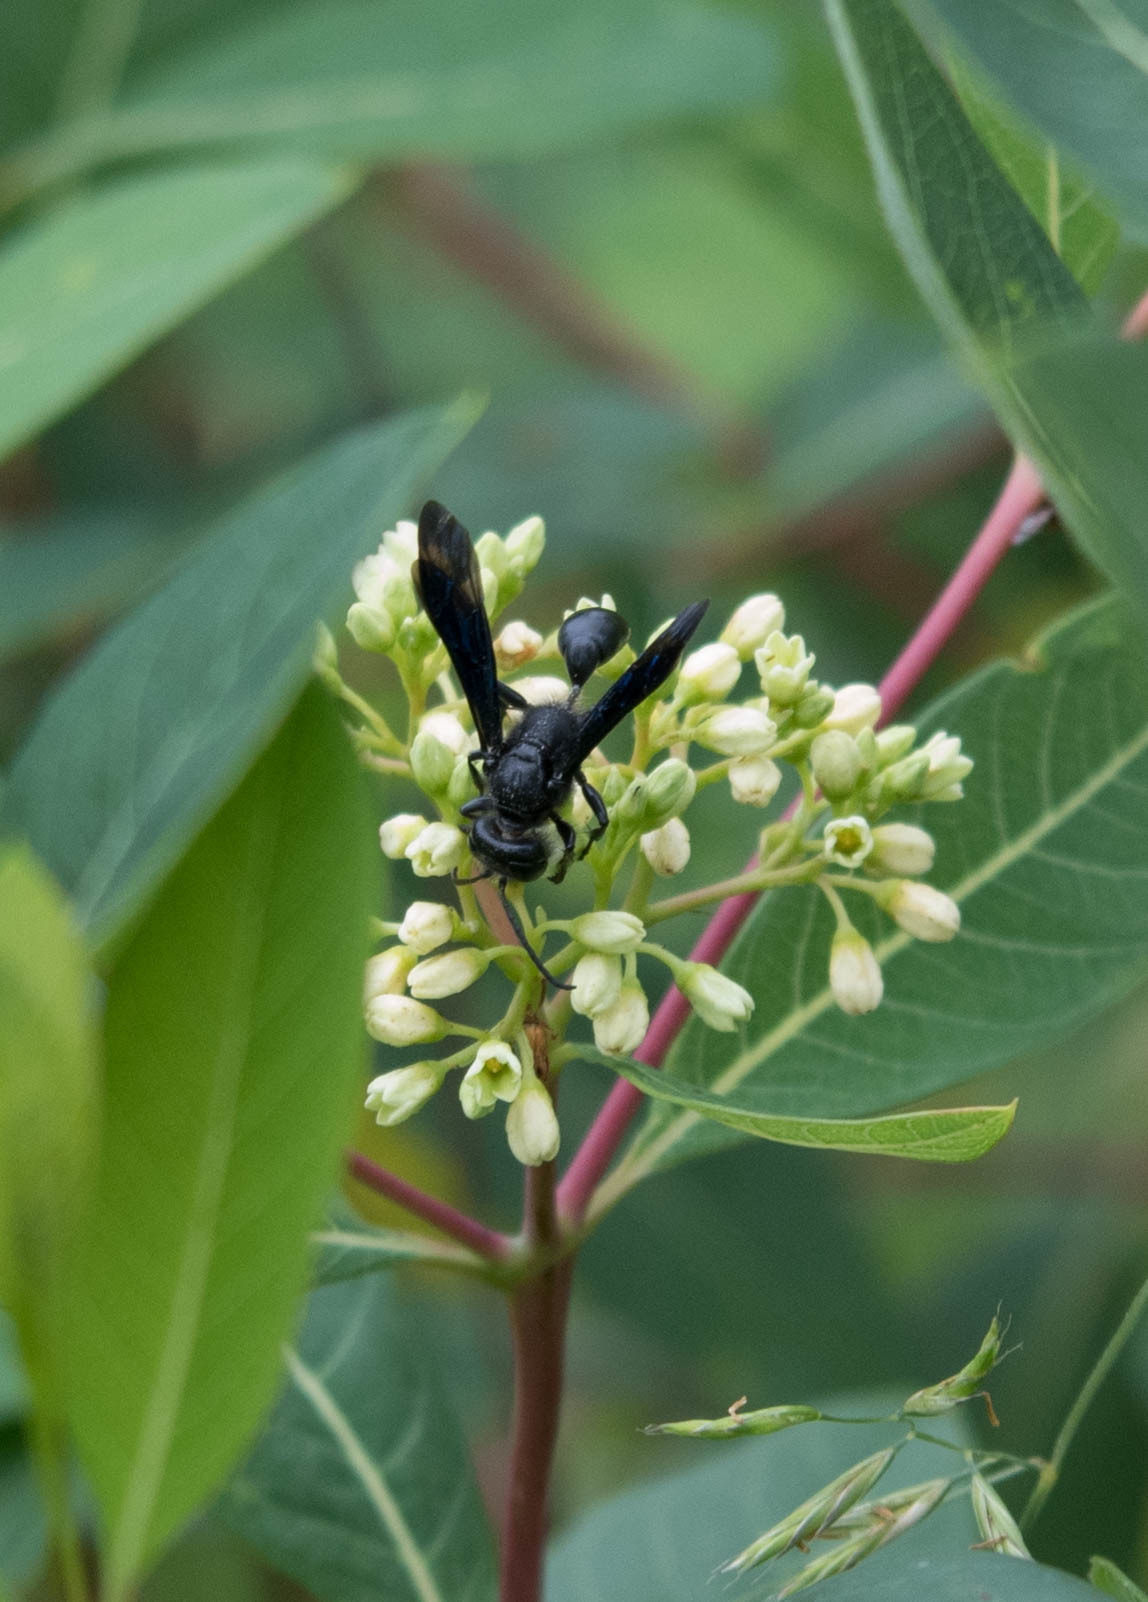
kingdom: Animalia
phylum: Arthropoda
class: Insecta
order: Hymenoptera
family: Sphecidae
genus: Isodontia
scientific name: Isodontia philadelphica
